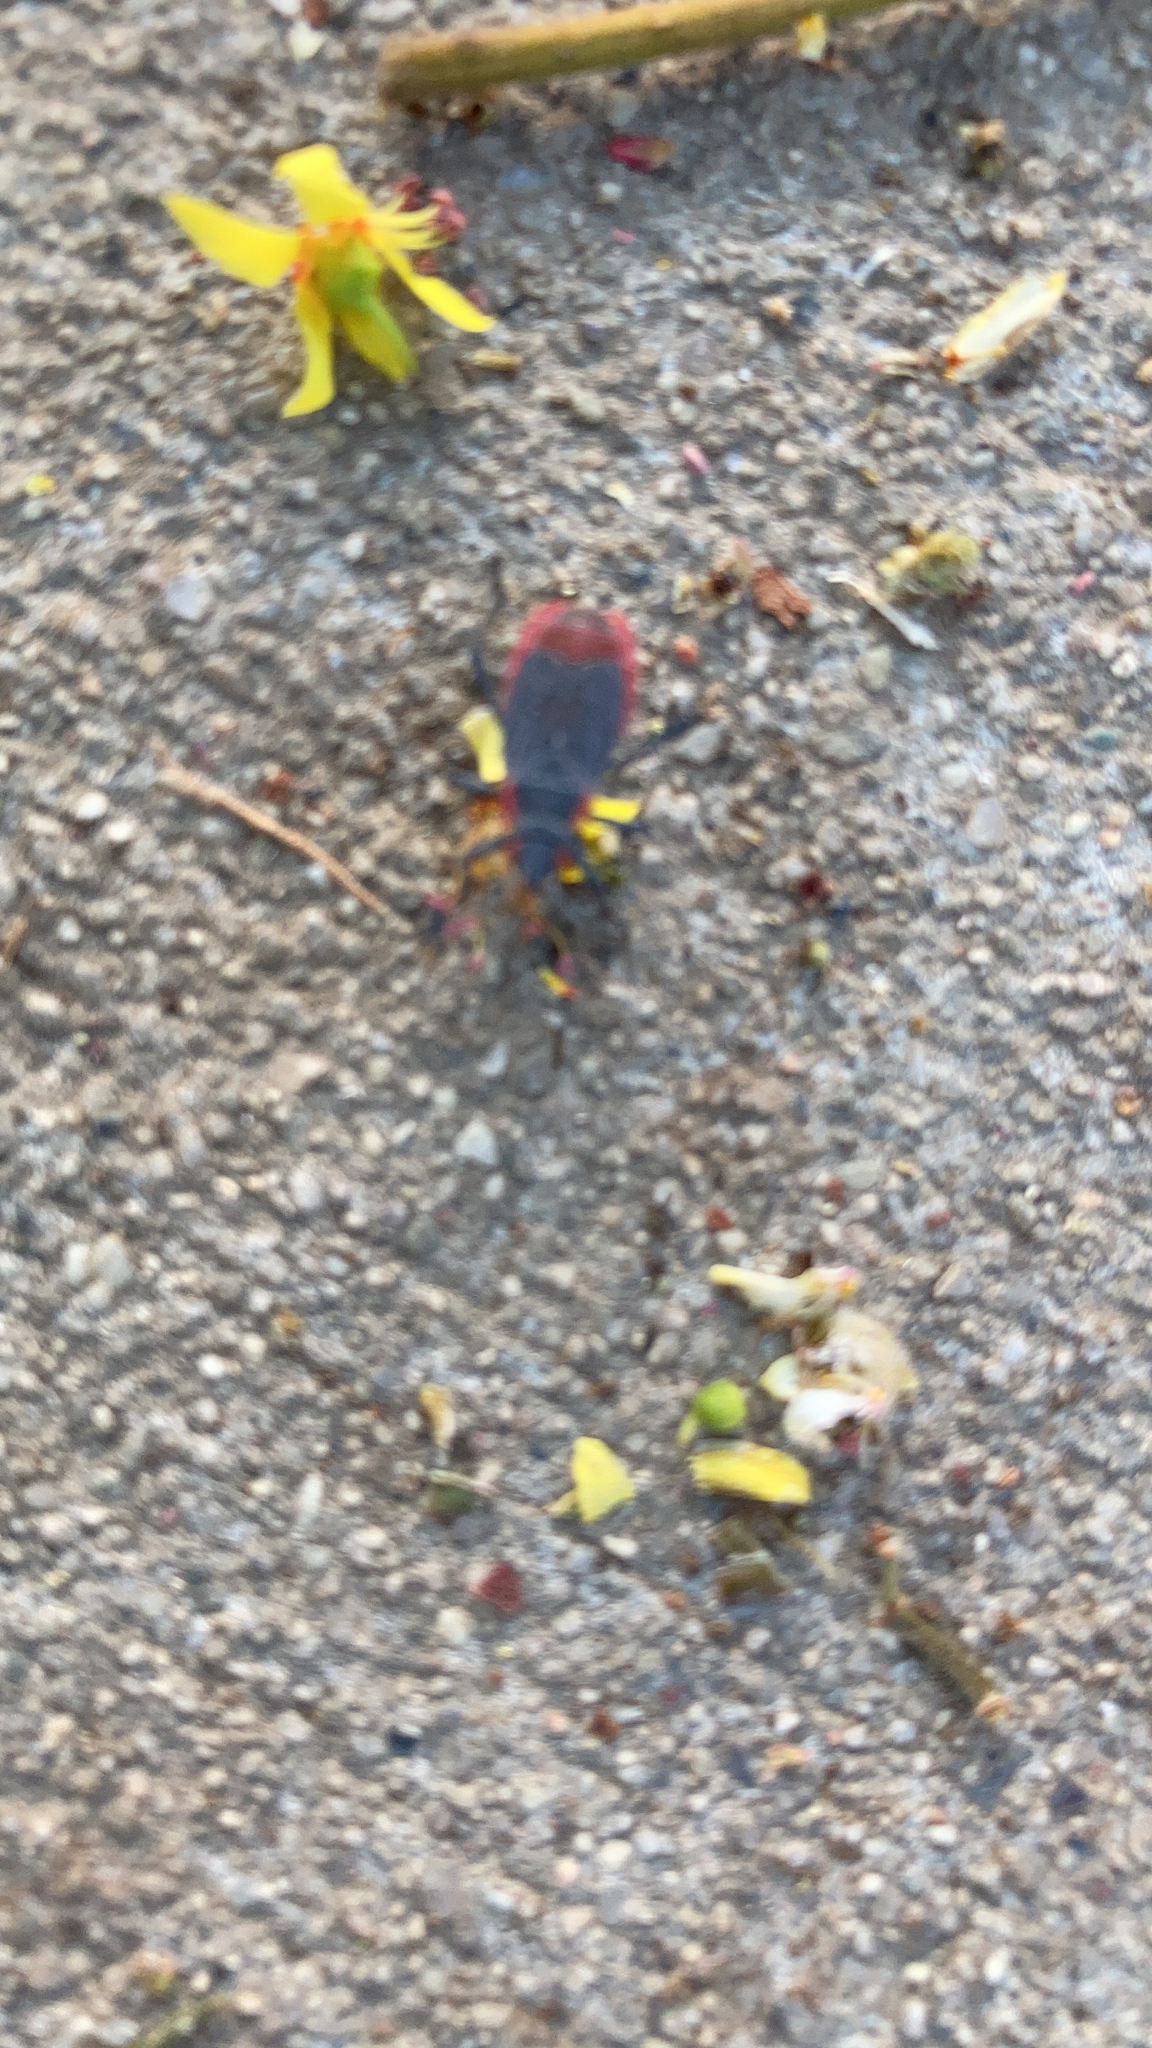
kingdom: Animalia
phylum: Arthropoda
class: Insecta
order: Hemiptera
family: Rhopalidae
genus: Jadera
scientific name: Jadera haematoloma
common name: Red-shouldered bug
